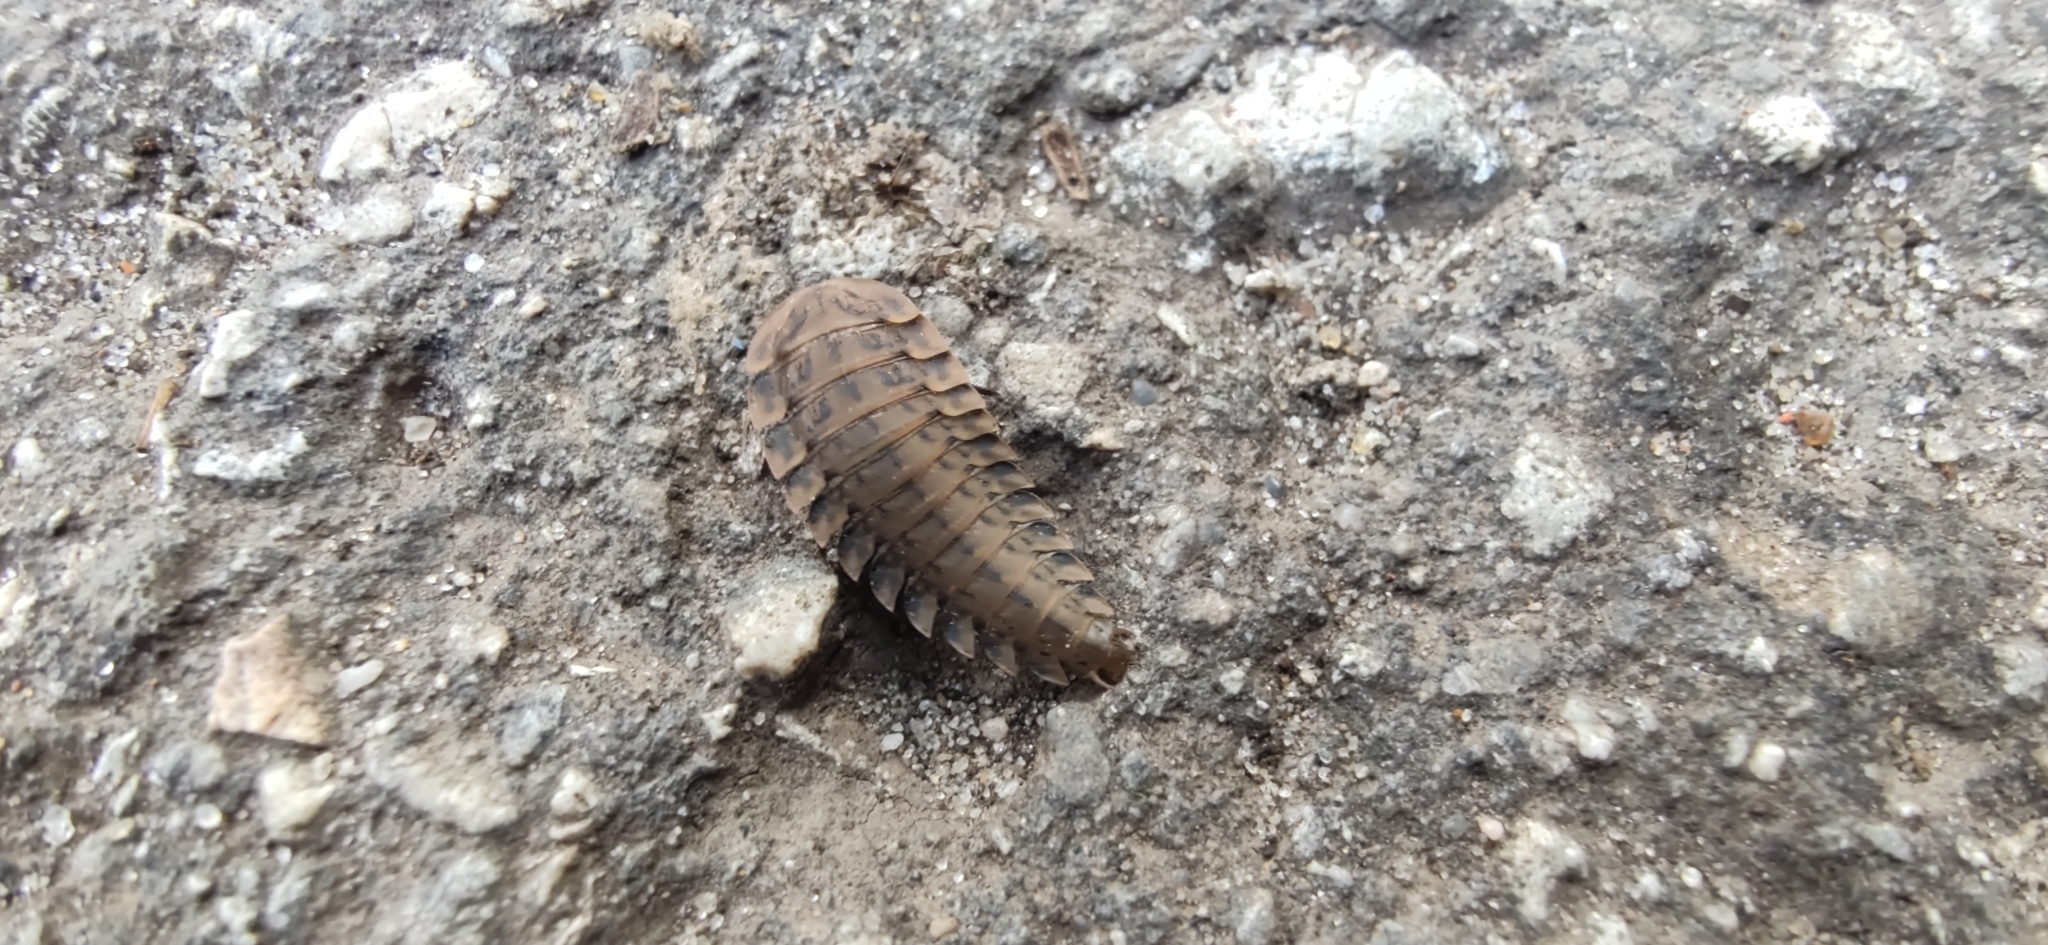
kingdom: Animalia
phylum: Arthropoda
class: Insecta
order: Coleoptera
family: Staphylinidae
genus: Silpha
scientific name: Silpha obscura
